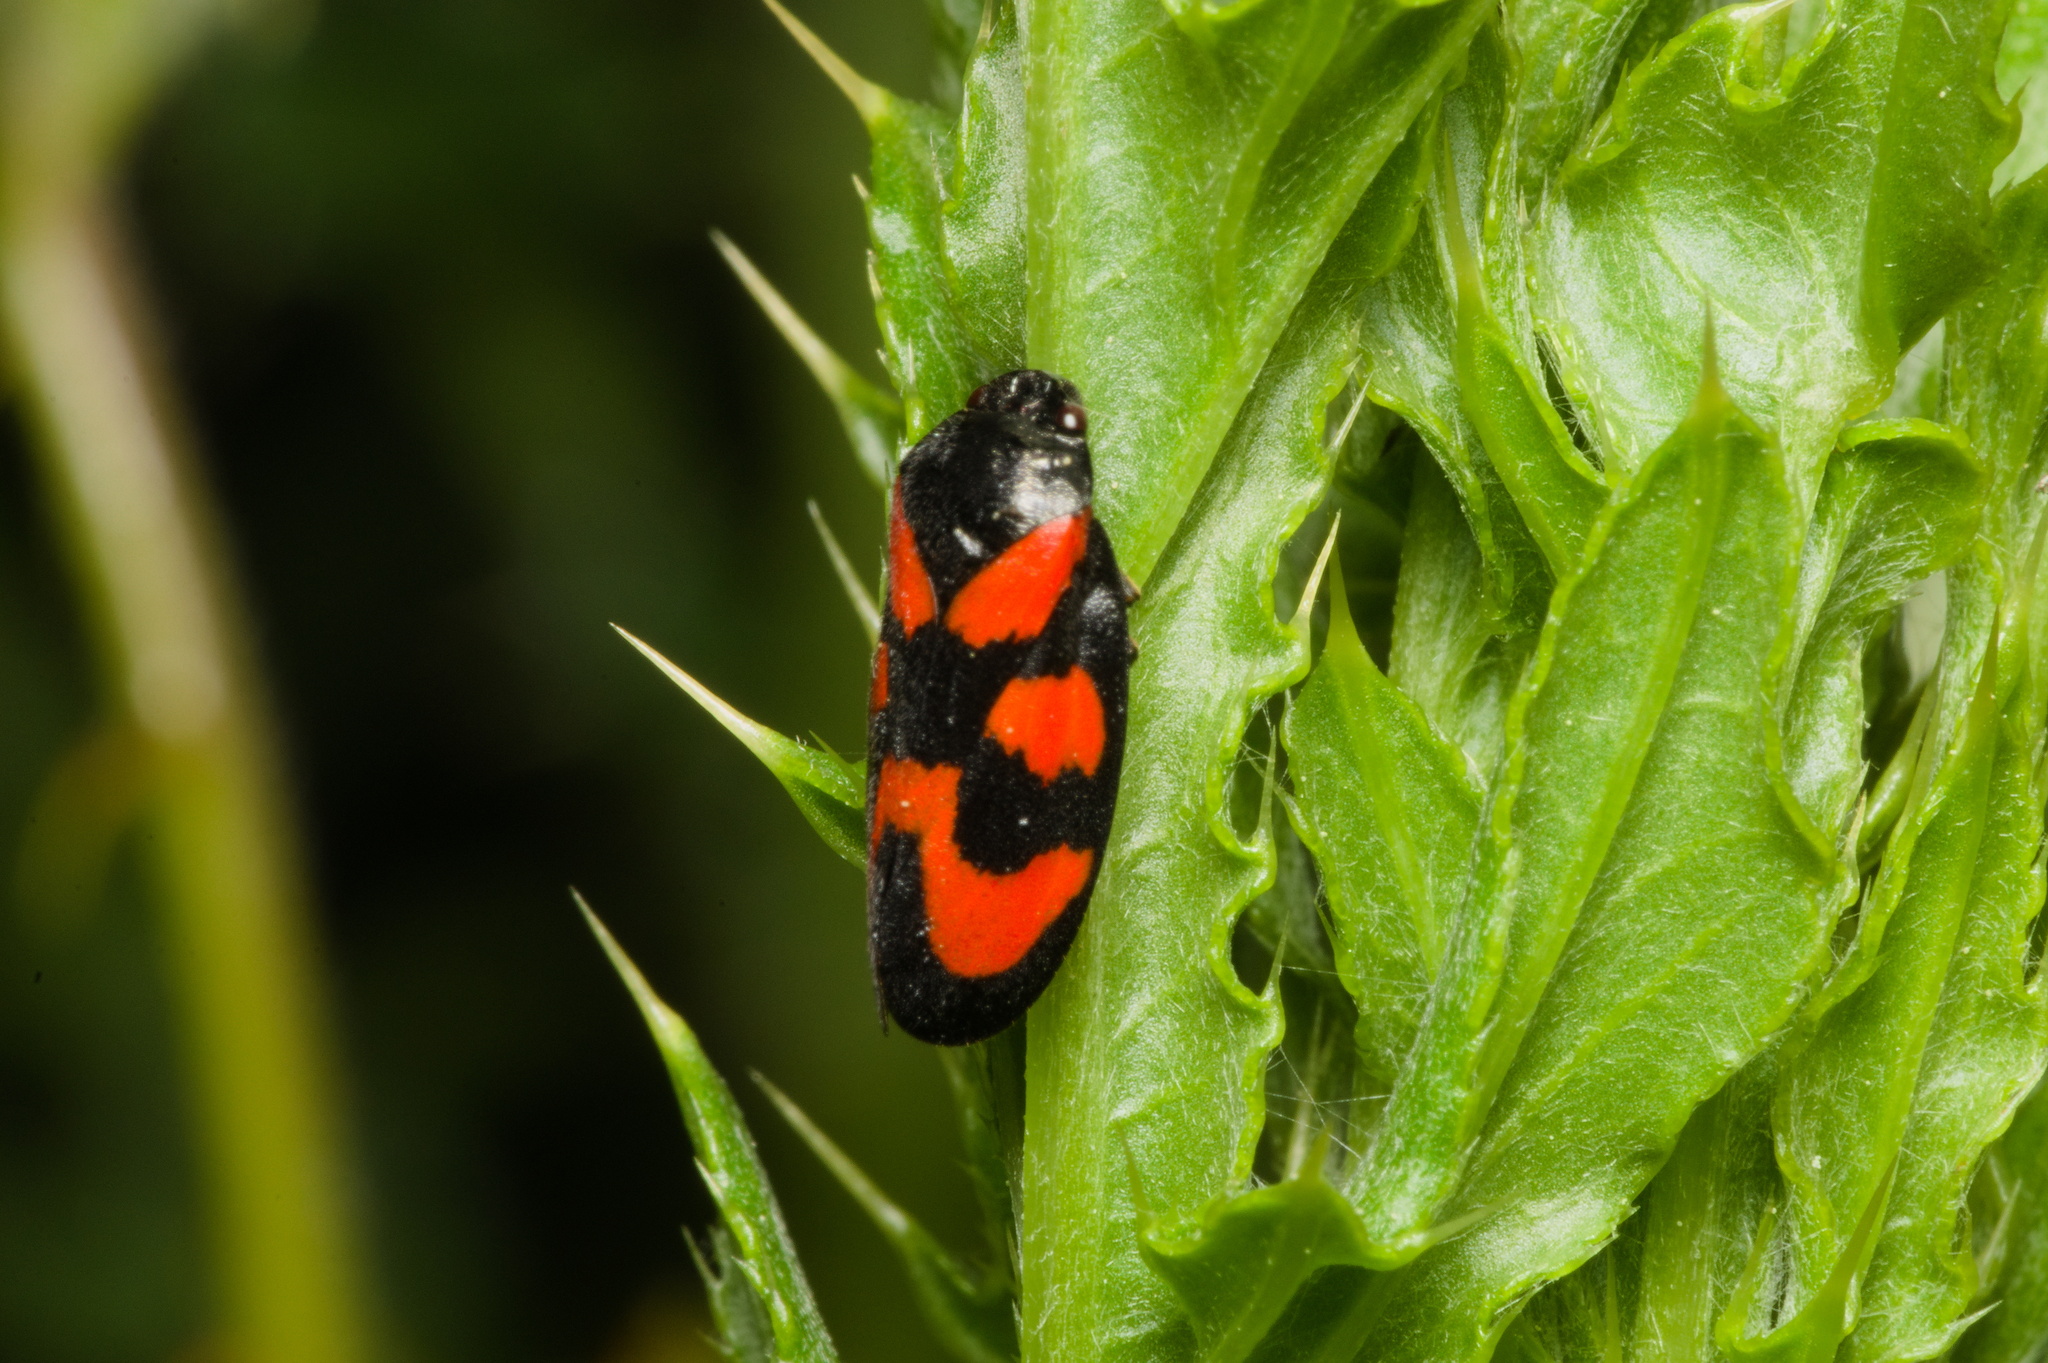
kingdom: Animalia
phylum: Arthropoda
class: Insecta
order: Hemiptera
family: Cercopidae
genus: Cercopis
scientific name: Cercopis vulnerata
